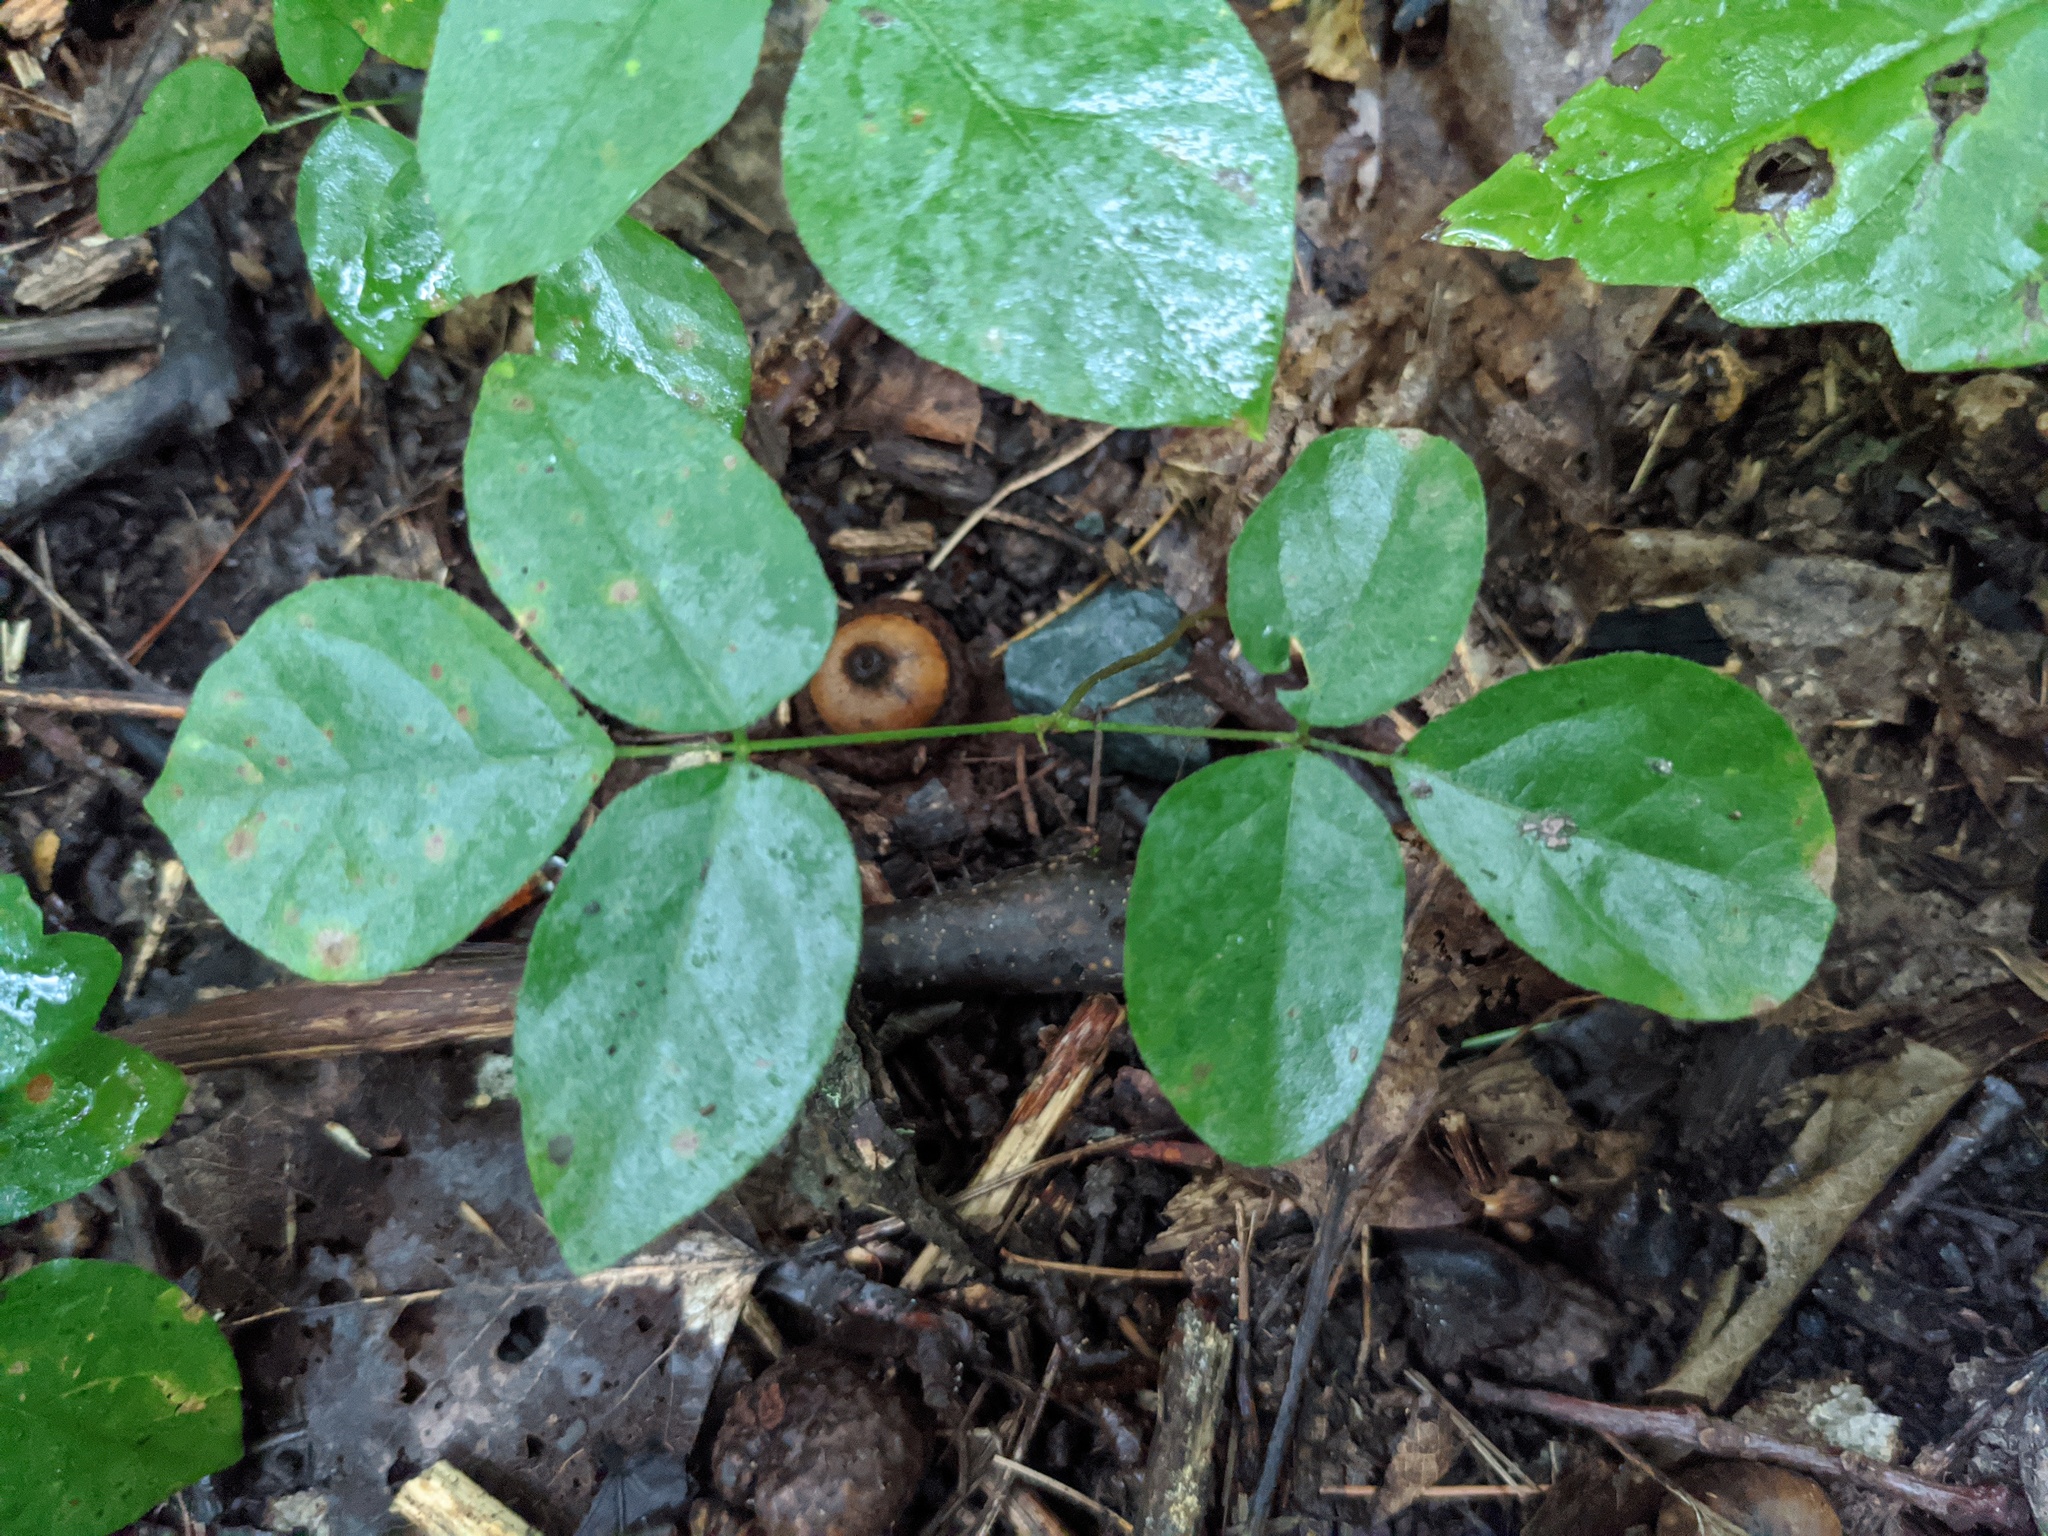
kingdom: Plantae
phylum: Tracheophyta
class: Magnoliopsida
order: Fabales
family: Fabaceae
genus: Hylodesmum
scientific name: Hylodesmum nudiflorum
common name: Bare-stemmed tick-trefoil
